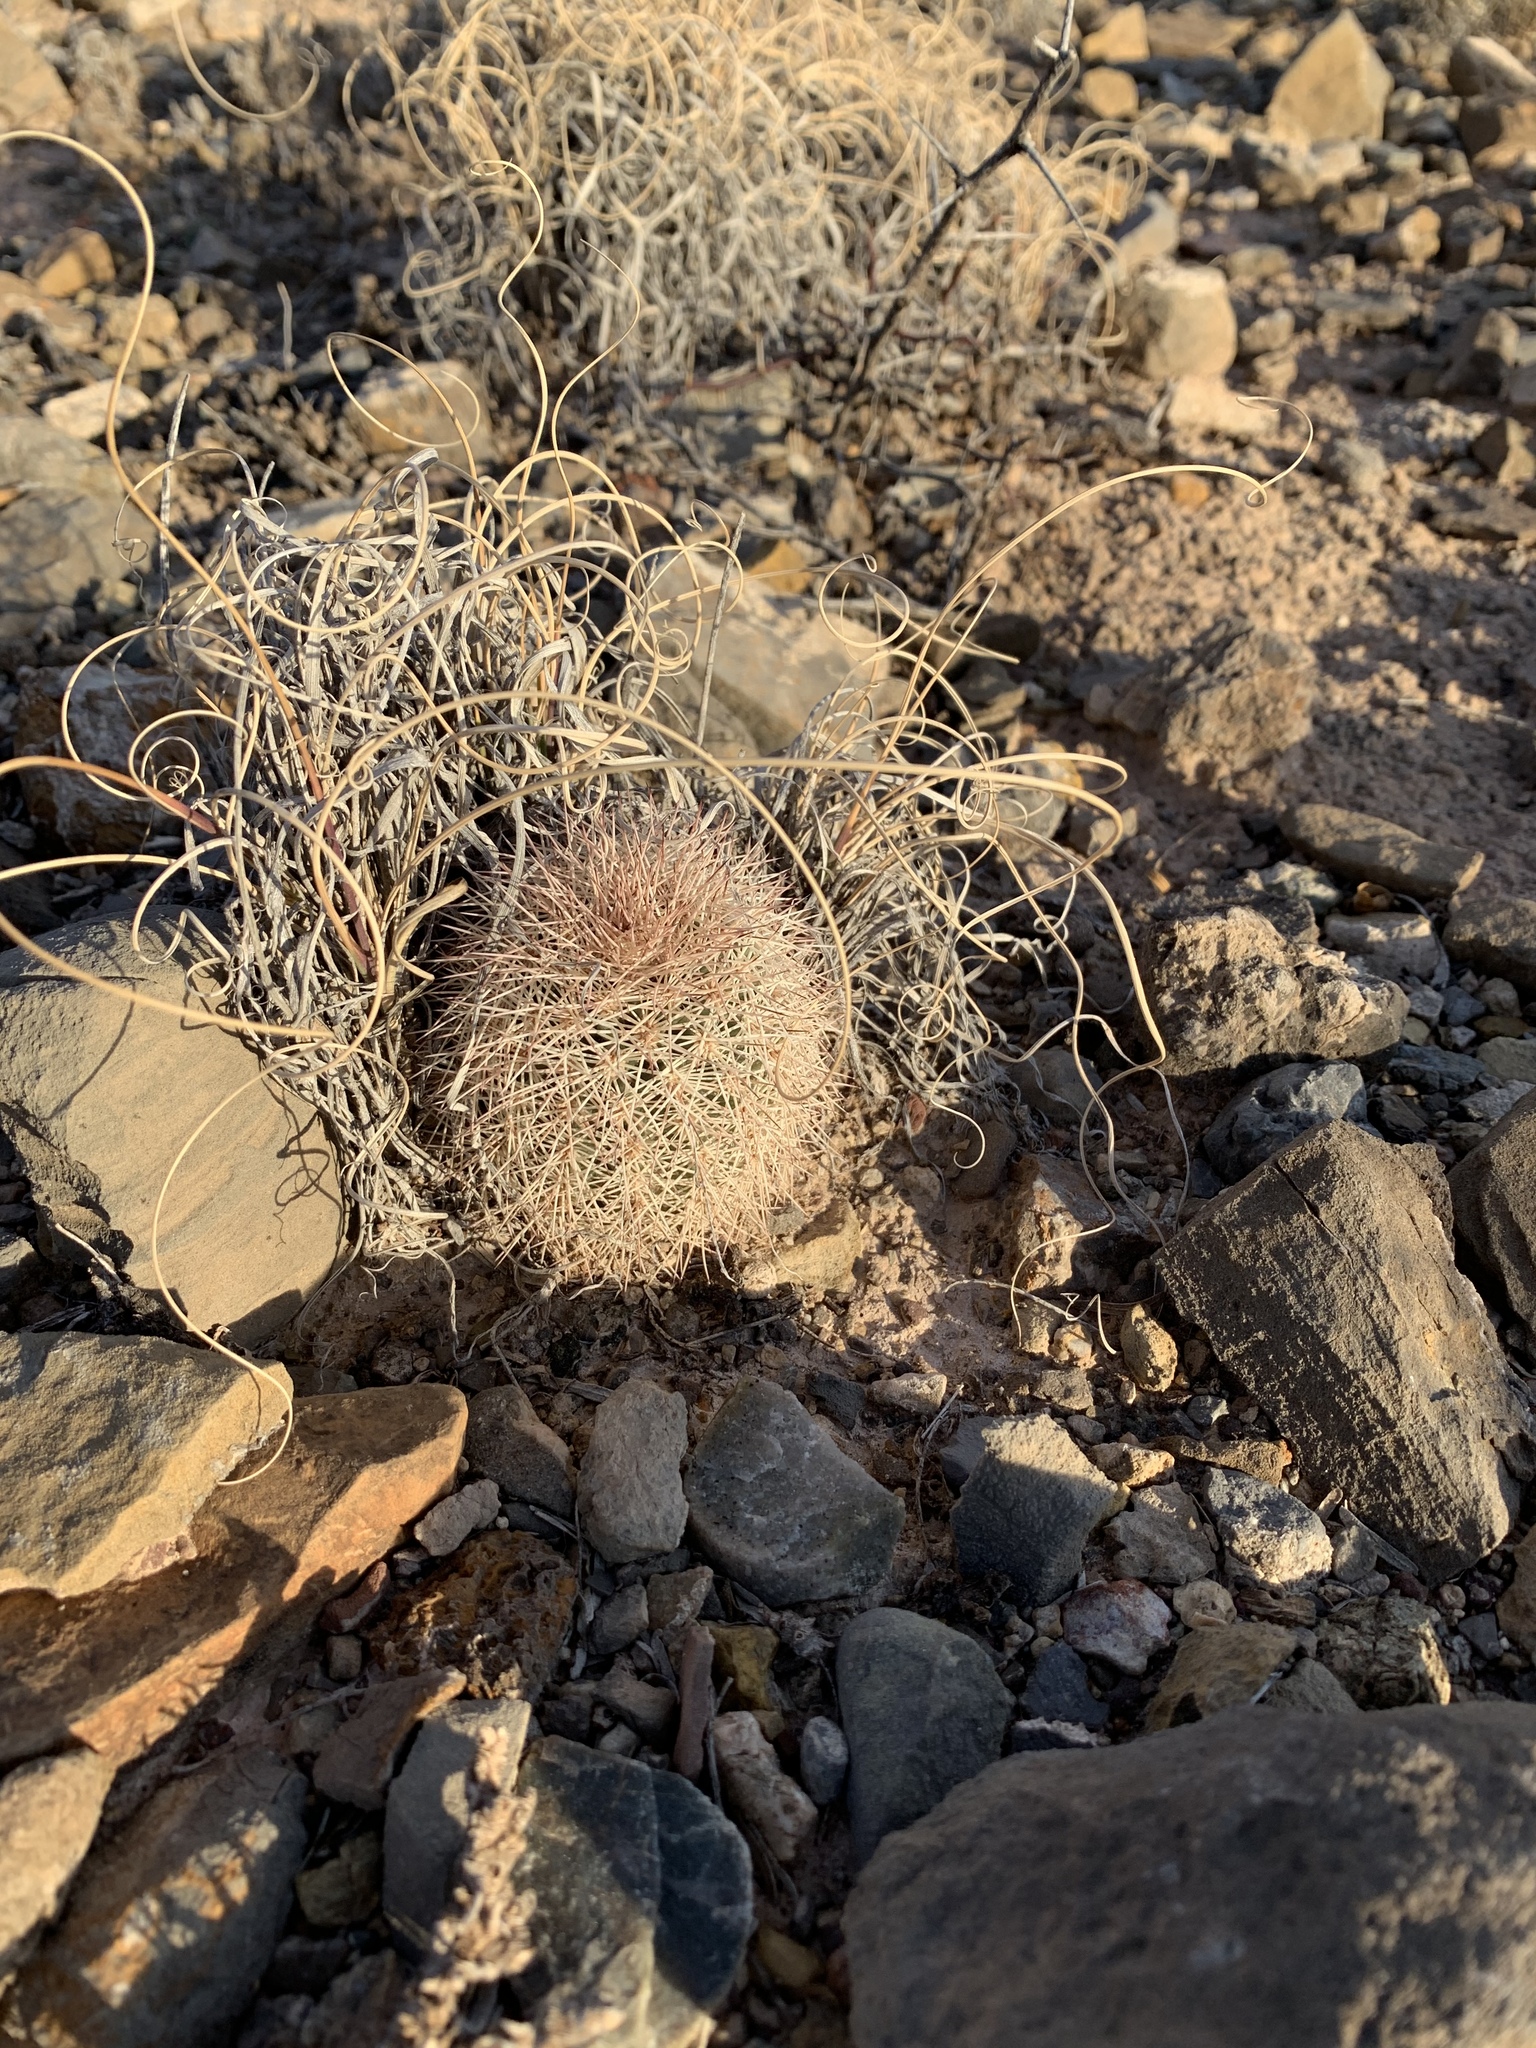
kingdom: Plantae
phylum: Tracheophyta
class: Magnoliopsida
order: Caryophyllales
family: Cactaceae
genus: Echinocereus
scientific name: Echinocereus dasyacanthus
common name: Spiny hedgehog cactus
